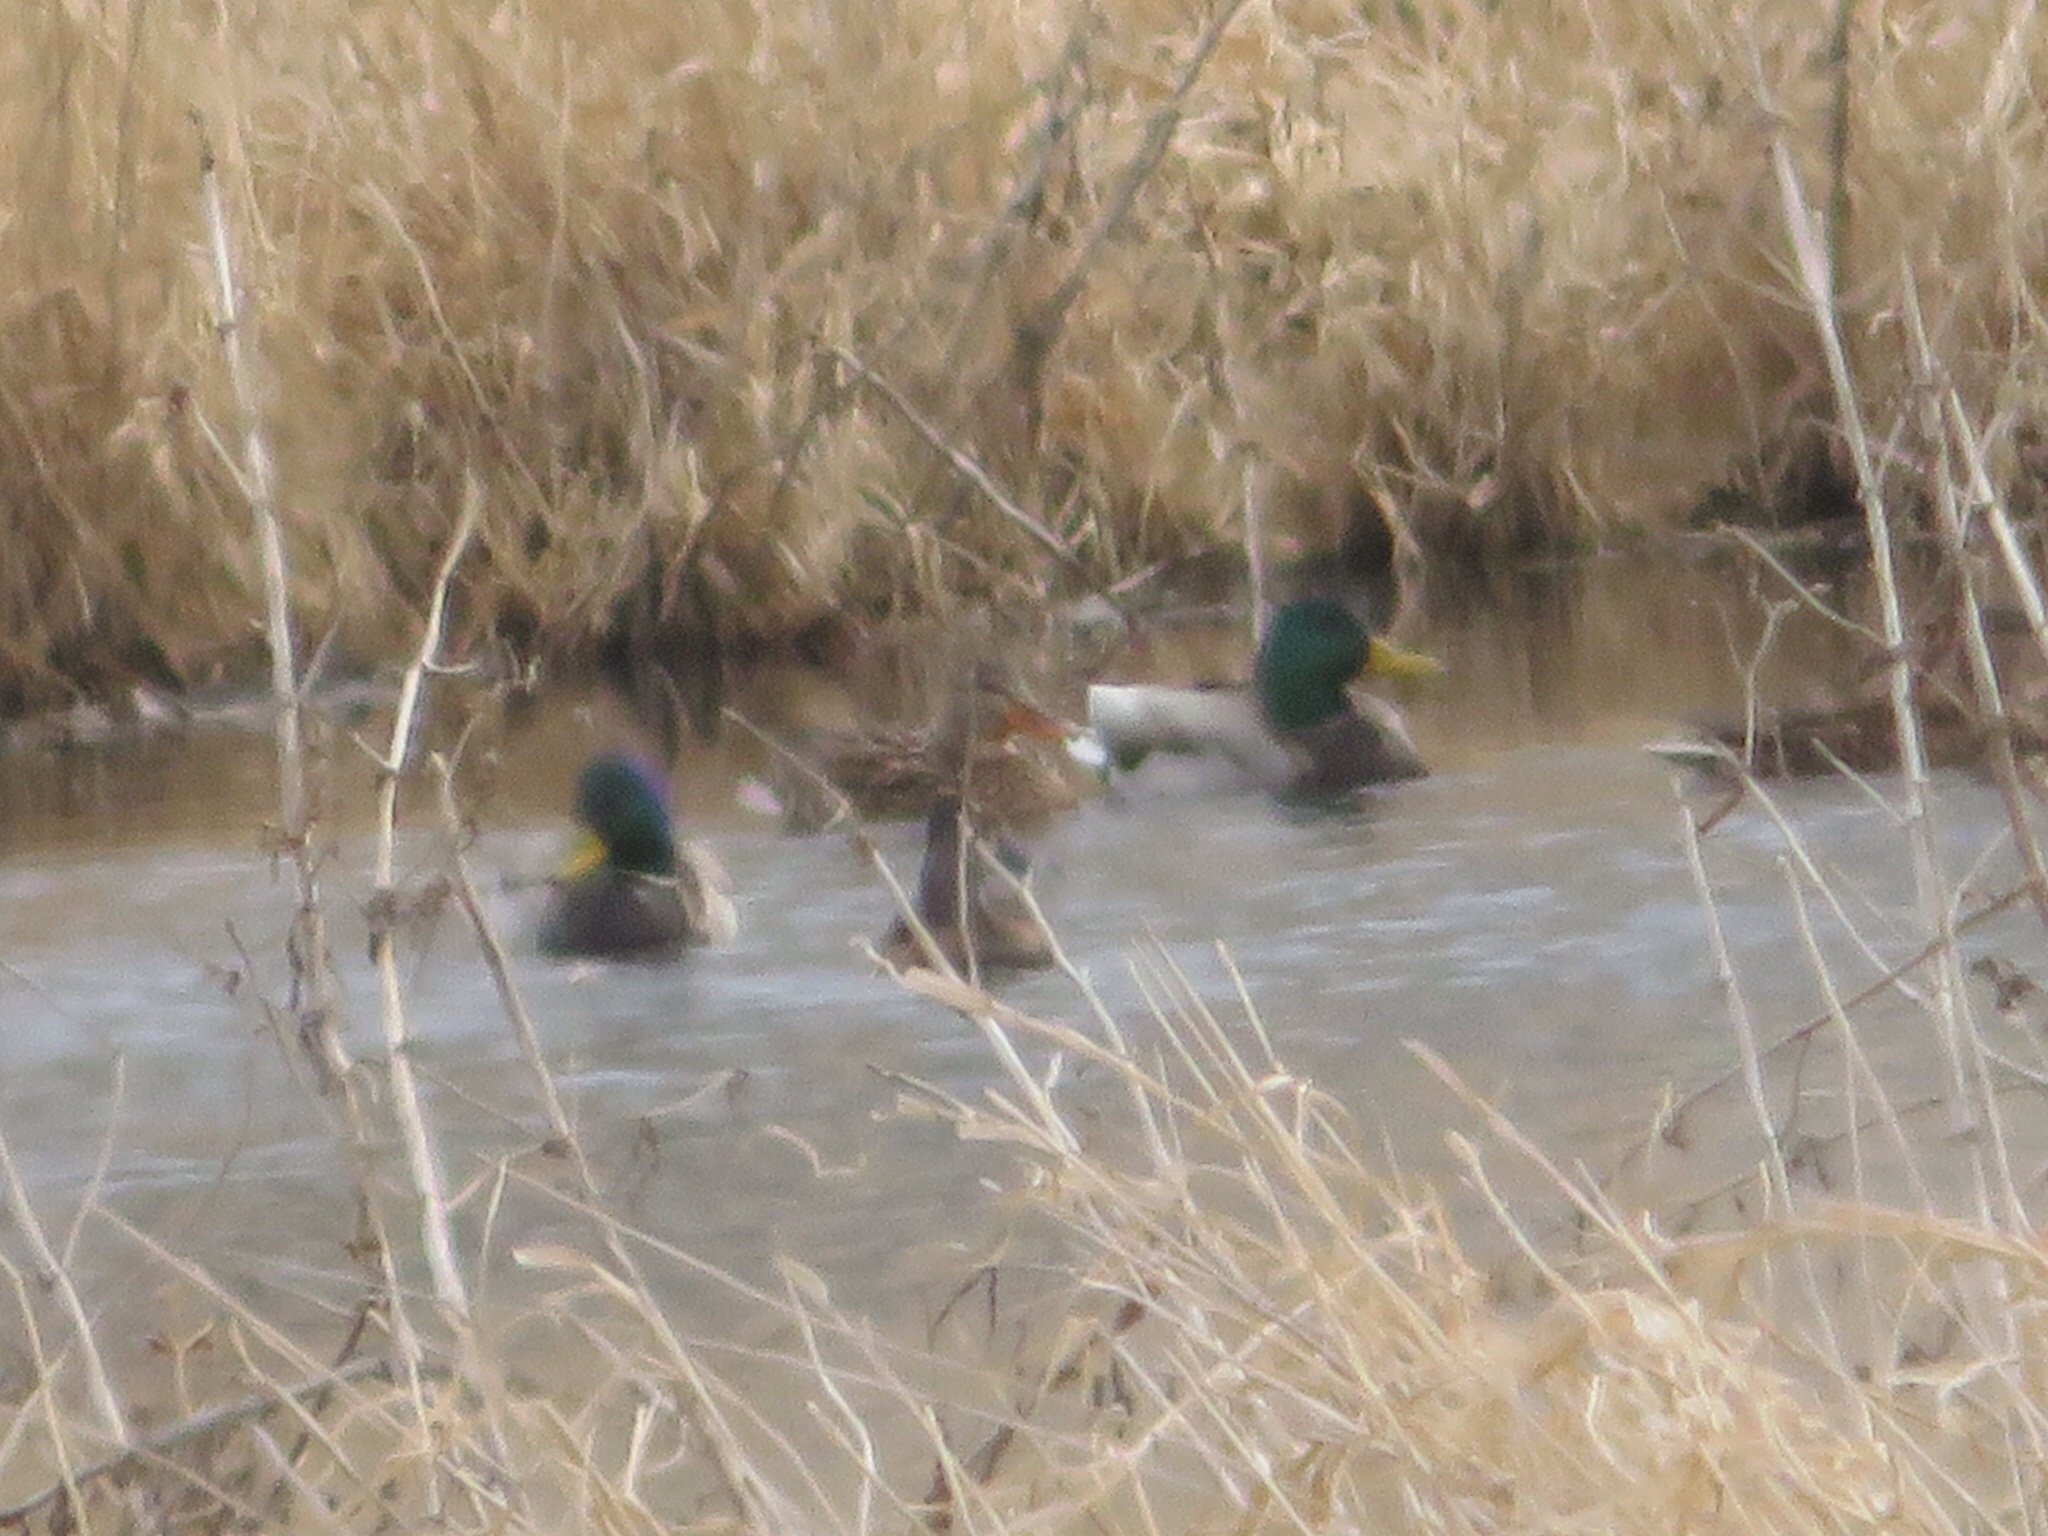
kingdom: Animalia
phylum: Chordata
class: Aves
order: Anseriformes
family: Anatidae
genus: Anas
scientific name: Anas platyrhynchos
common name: Mallard
